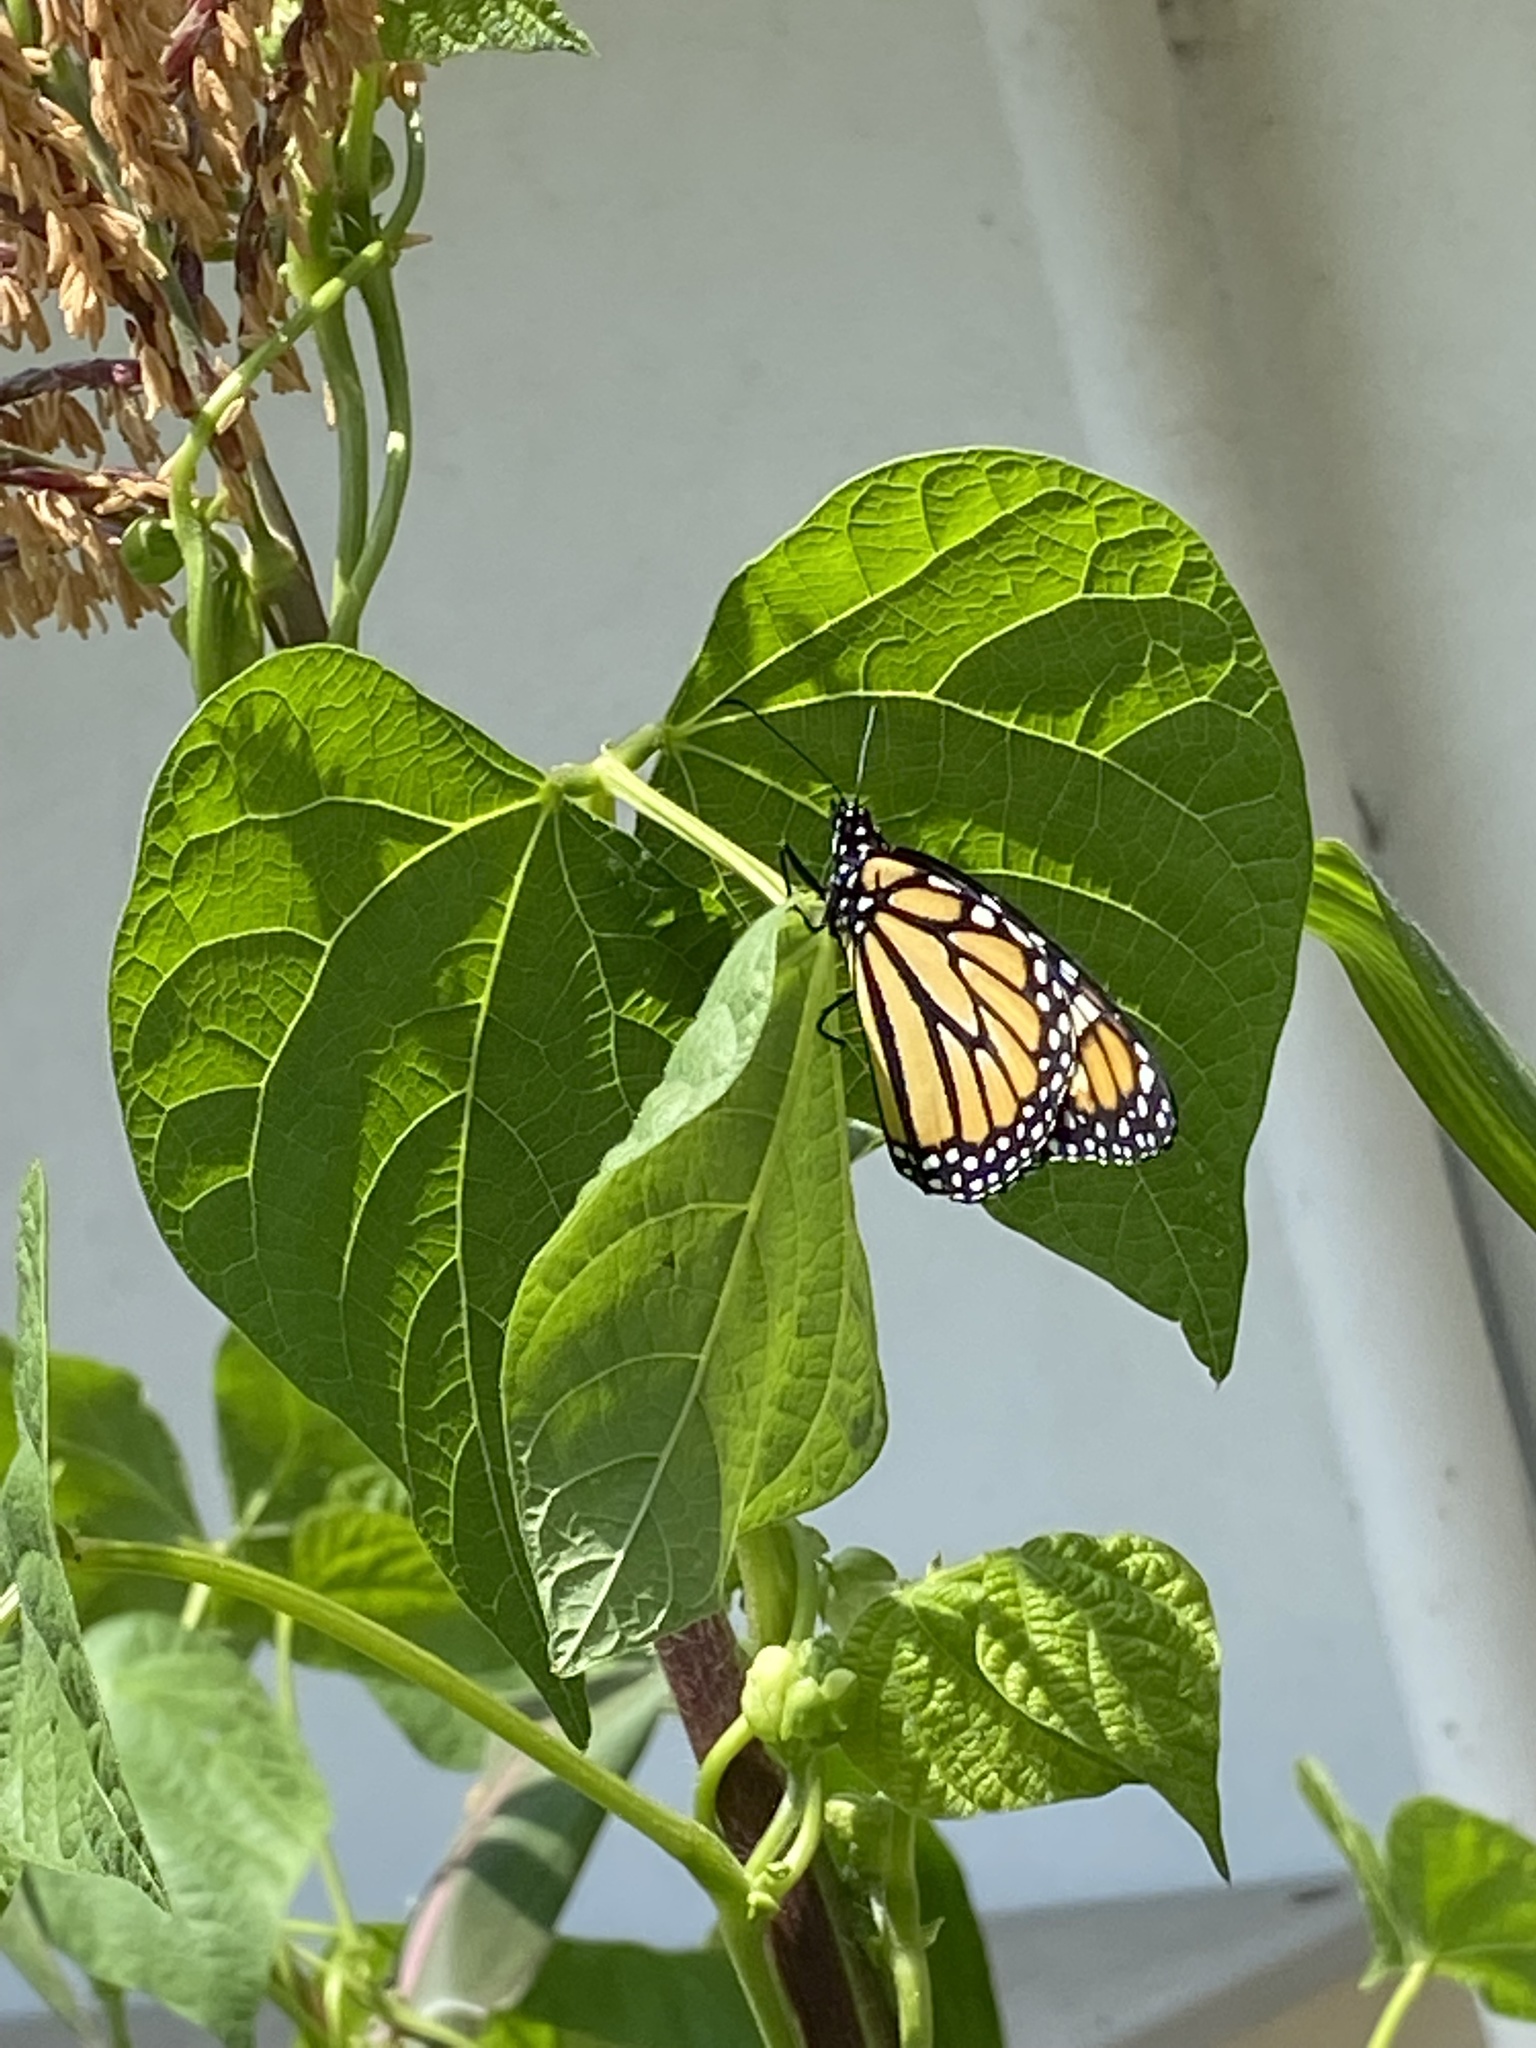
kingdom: Animalia
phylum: Arthropoda
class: Insecta
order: Lepidoptera
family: Nymphalidae
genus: Danaus
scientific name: Danaus plexippus
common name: Monarch
